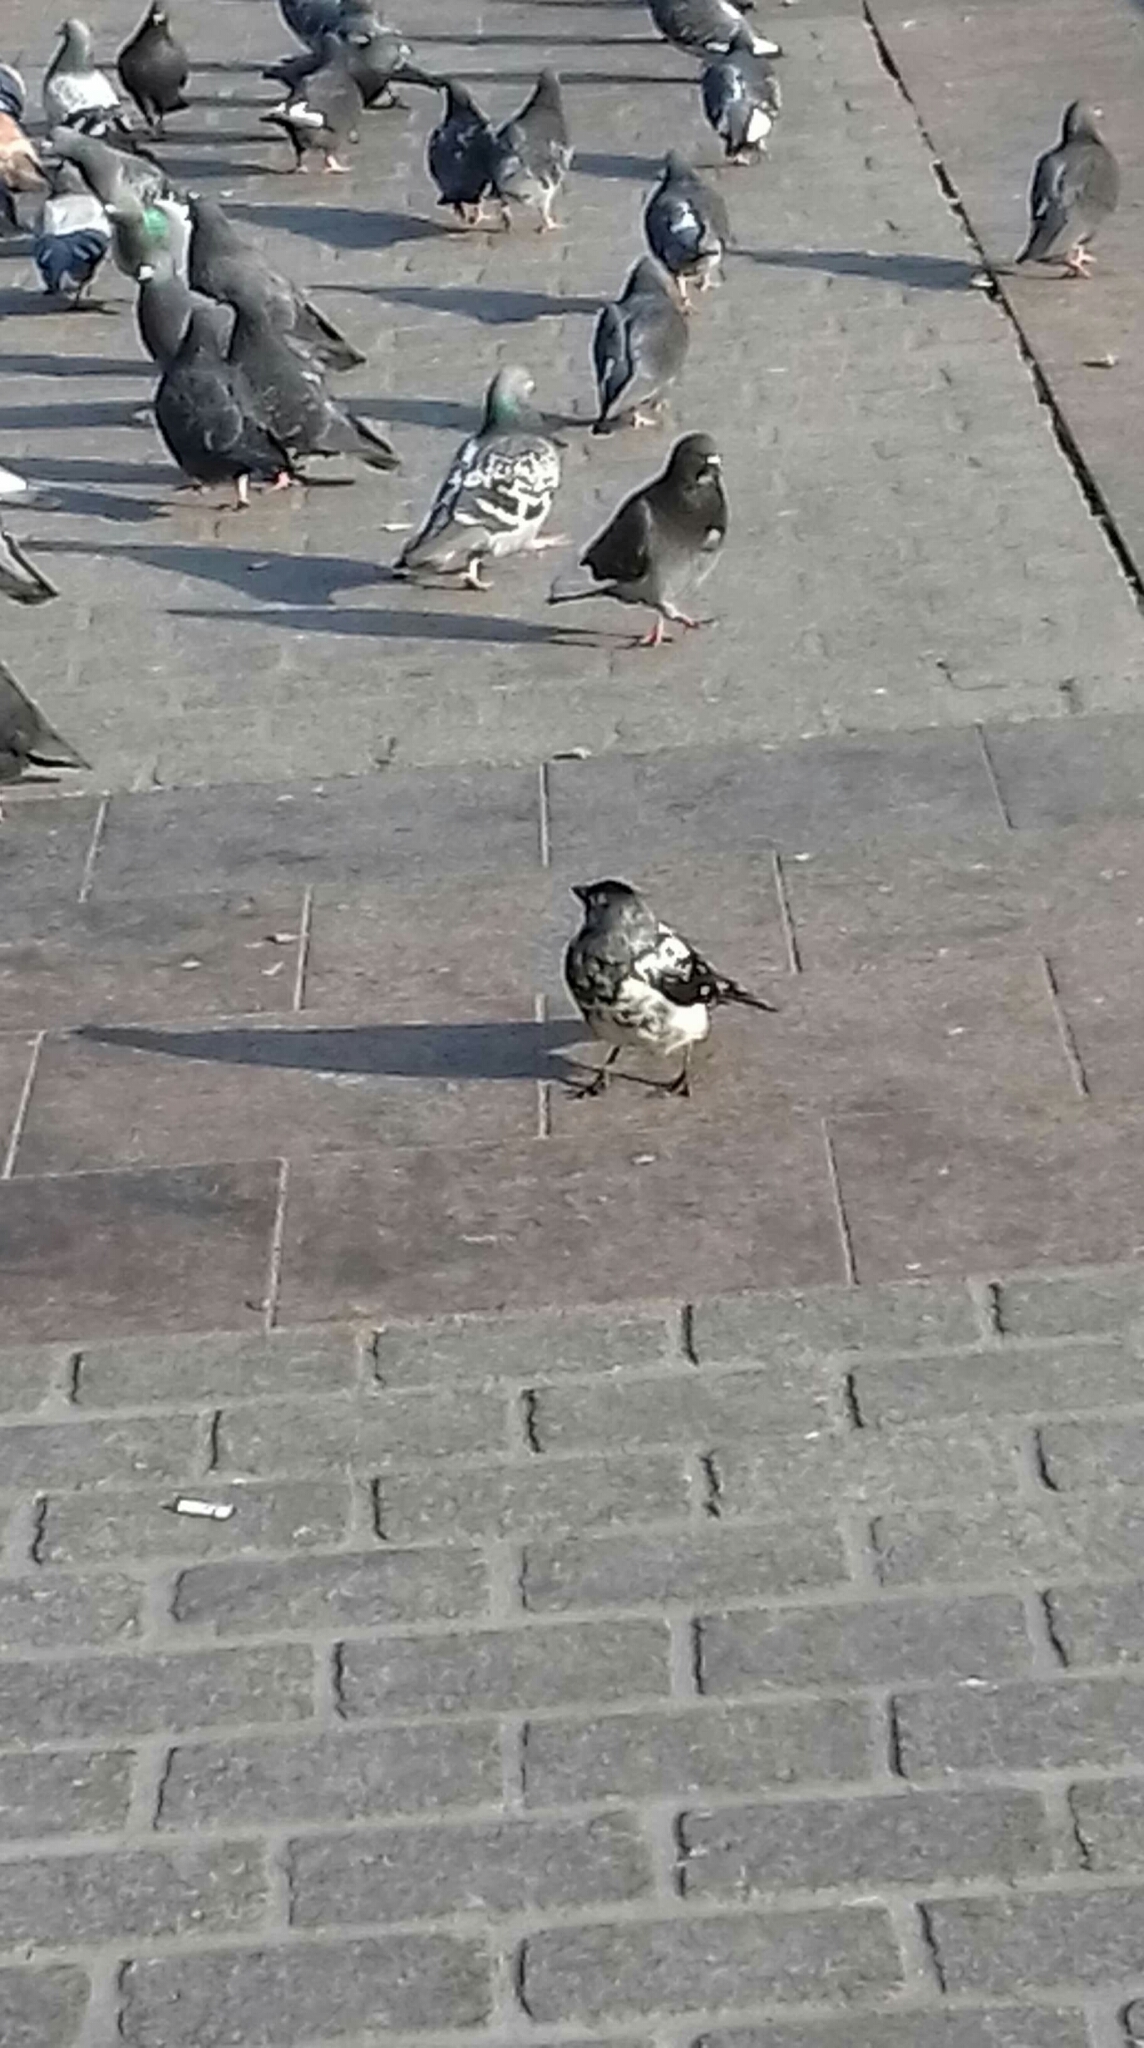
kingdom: Animalia
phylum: Chordata
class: Aves
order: Passeriformes
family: Corvidae
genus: Coloeus
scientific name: Coloeus monedula
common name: Western jackdaw
